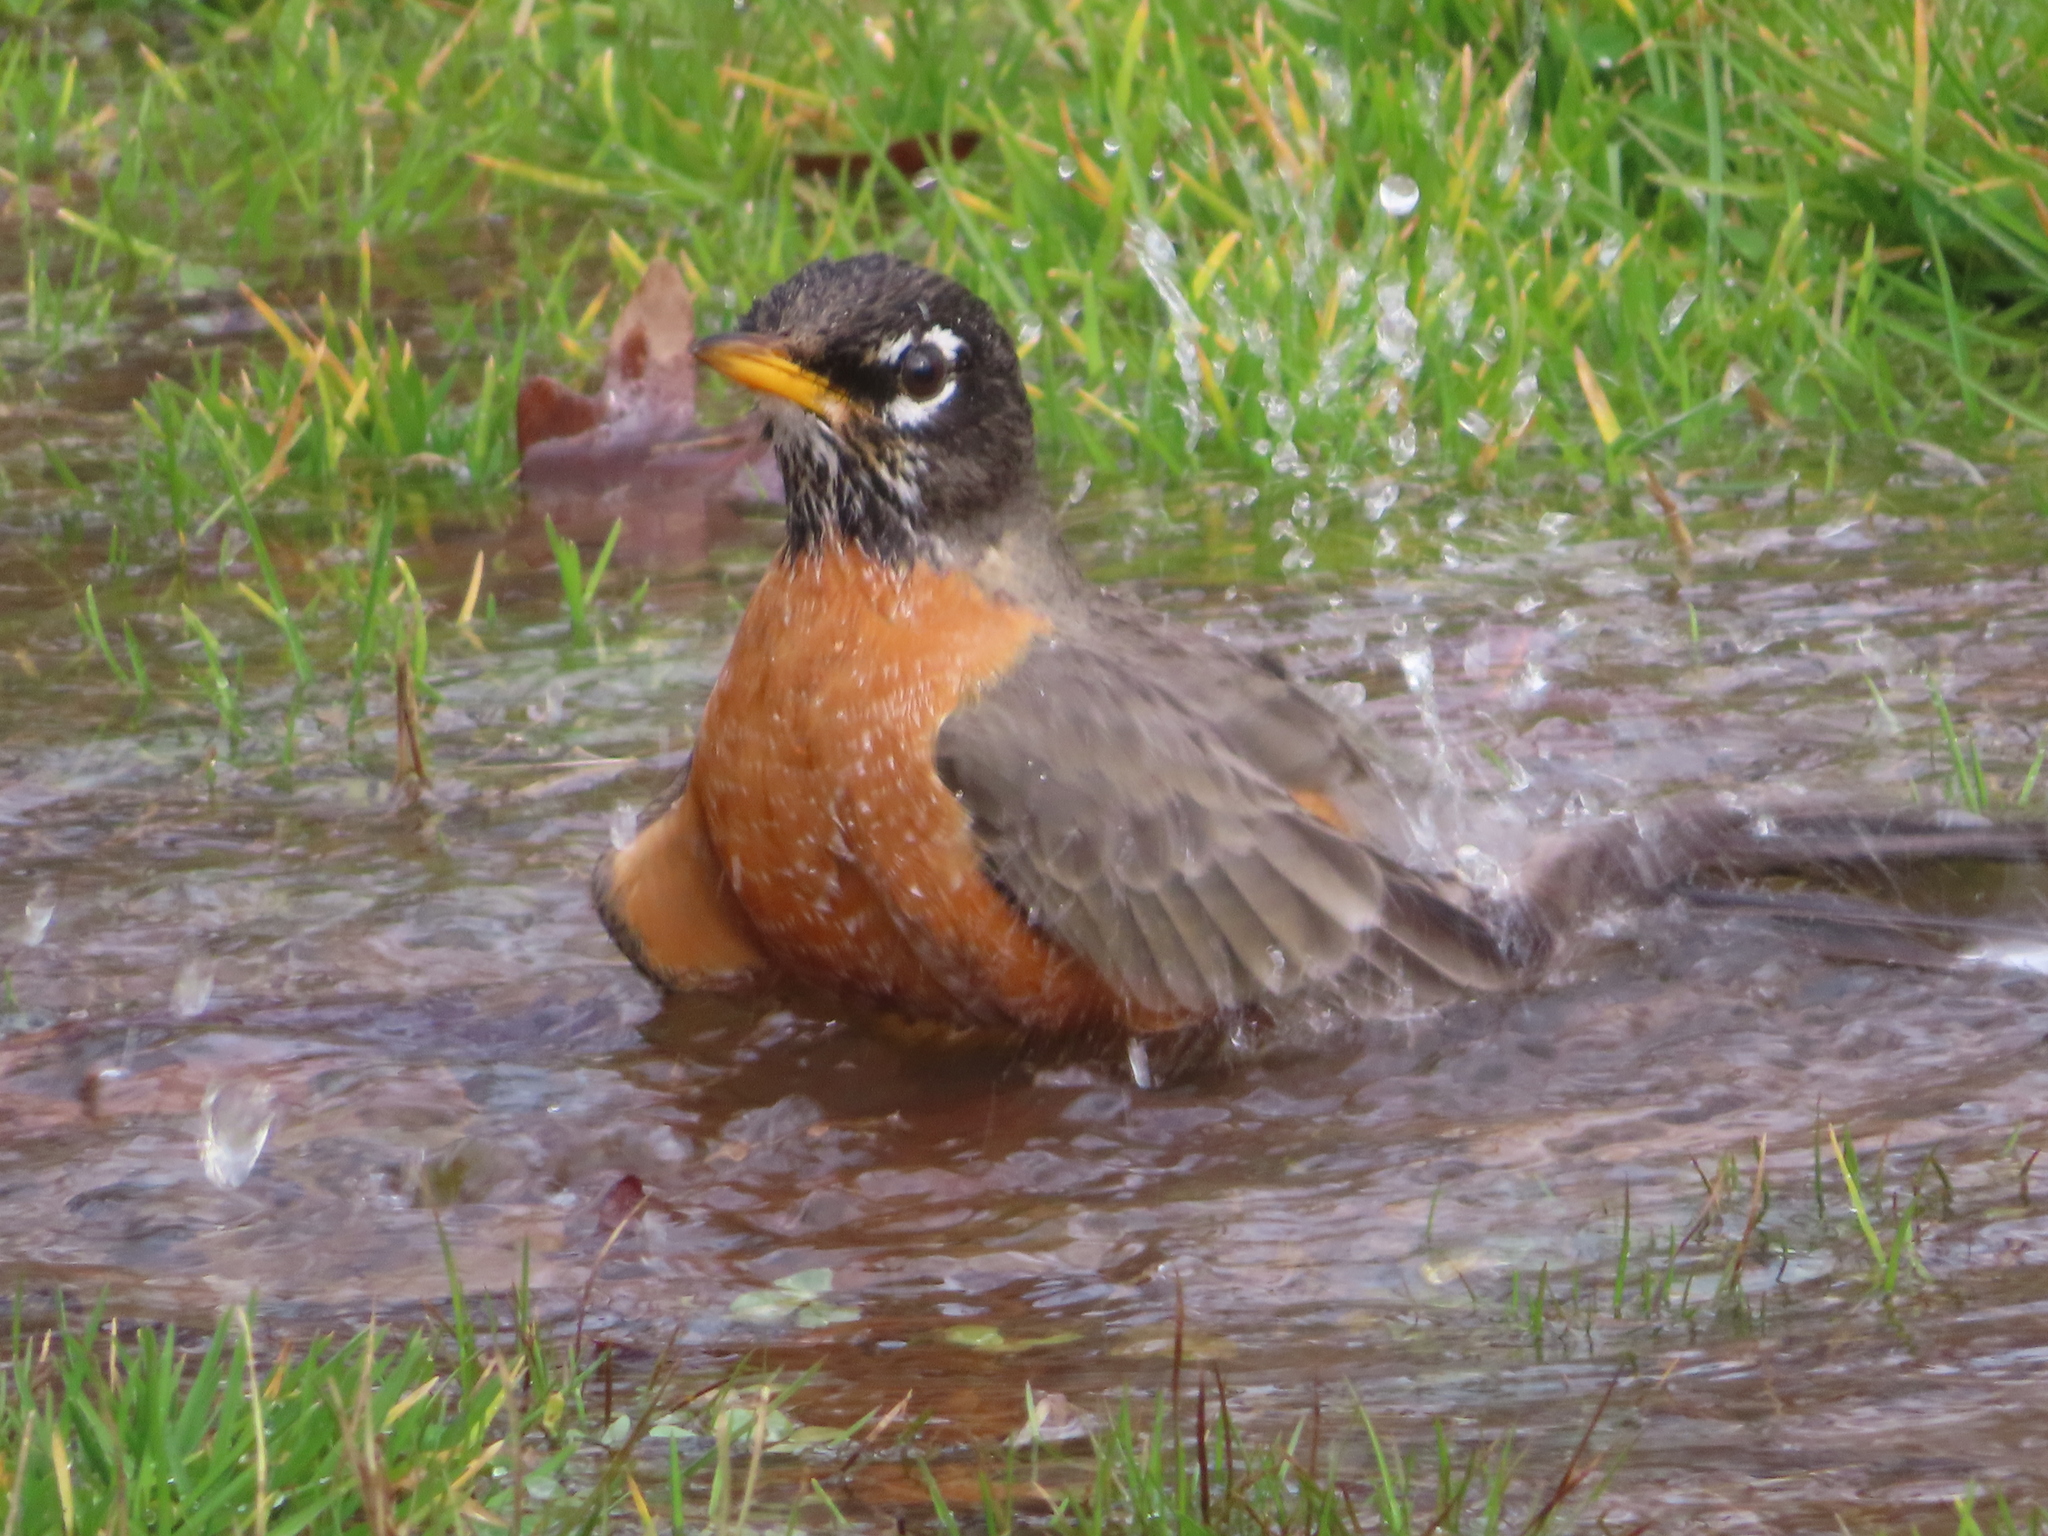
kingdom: Animalia
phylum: Chordata
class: Aves
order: Passeriformes
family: Turdidae
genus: Turdus
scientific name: Turdus migratorius
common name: American robin
